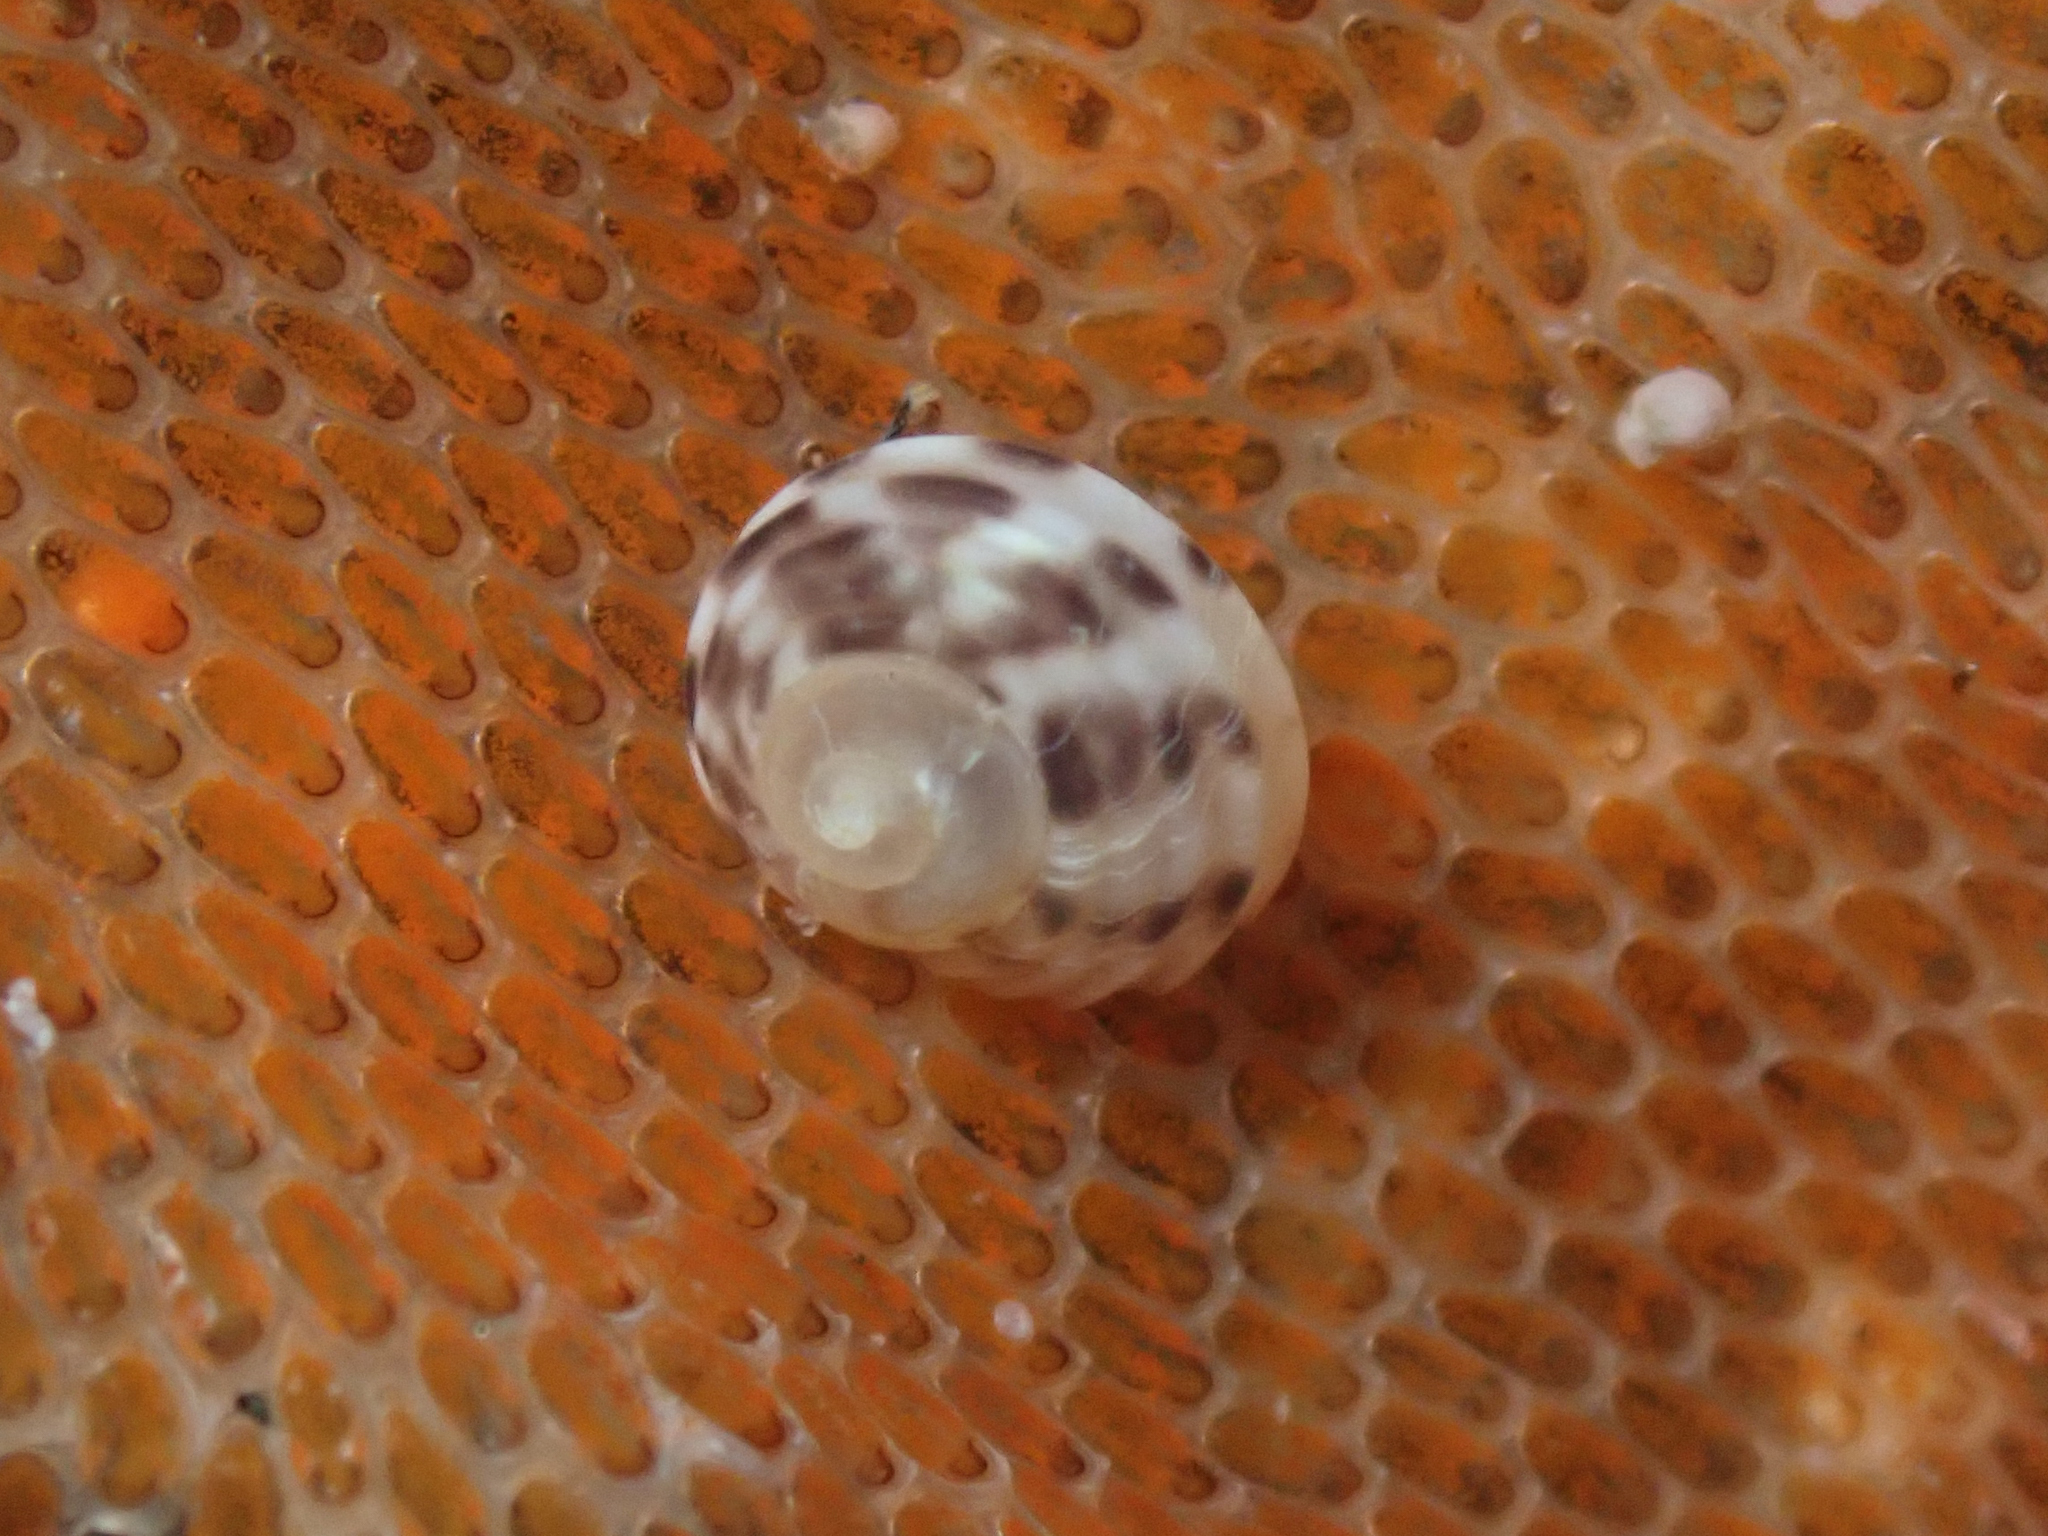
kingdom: Animalia
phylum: Mollusca
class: Gastropoda
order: Trochida
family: Tegulidae
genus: Norrisia
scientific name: Norrisia norrisii
